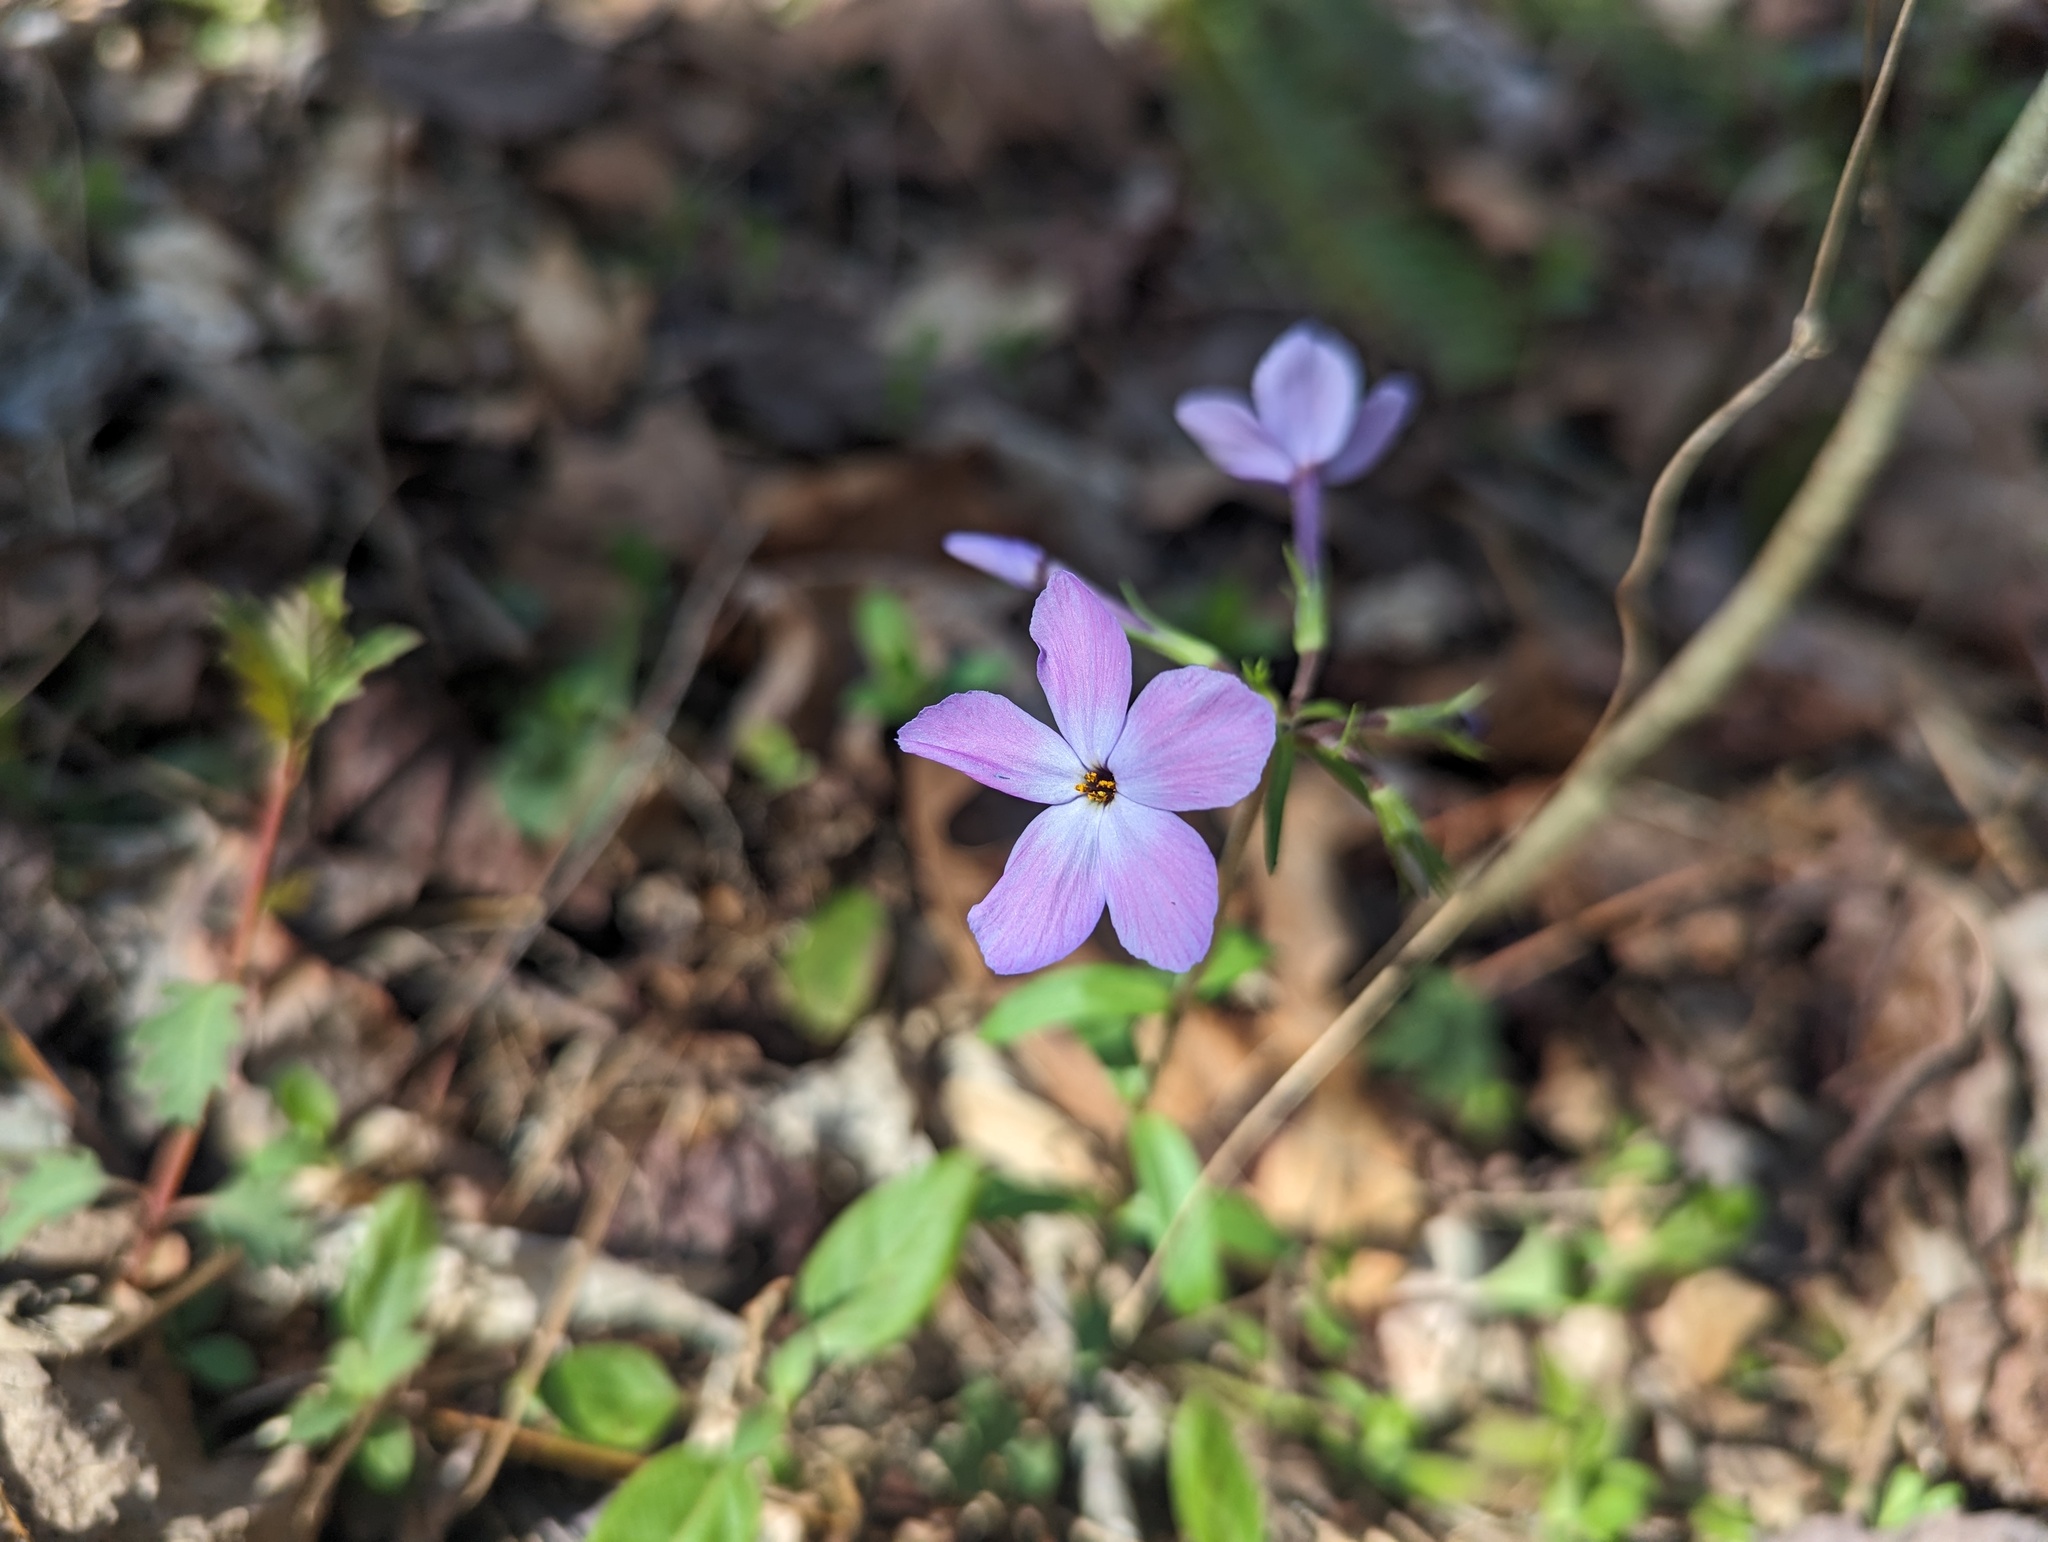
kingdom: Plantae
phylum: Tracheophyta
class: Magnoliopsida
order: Ericales
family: Polemoniaceae
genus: Phlox
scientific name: Phlox stolonifera
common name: Creeping phlox
